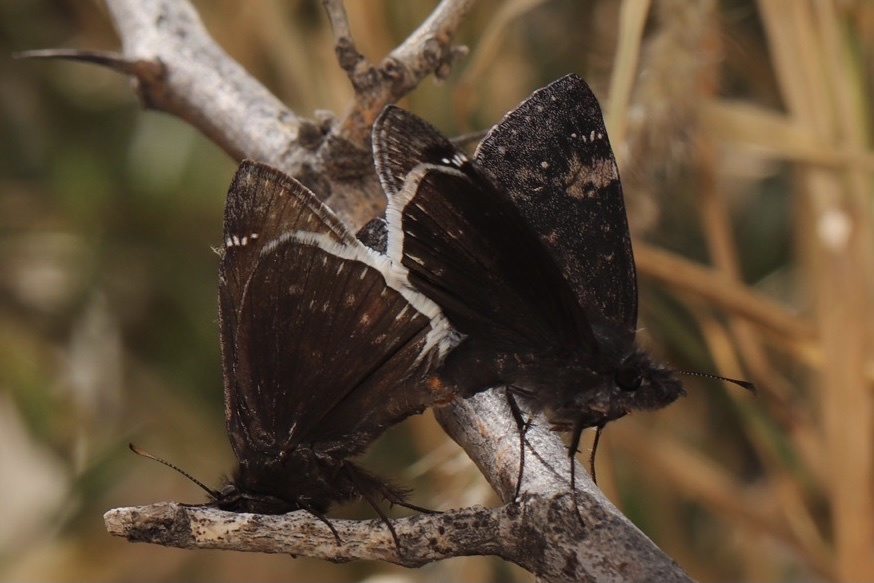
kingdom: Animalia
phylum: Arthropoda
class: Insecta
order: Lepidoptera
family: Hesperiidae
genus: Erynnis
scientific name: Erynnis funeralis
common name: Funereal duskywing
